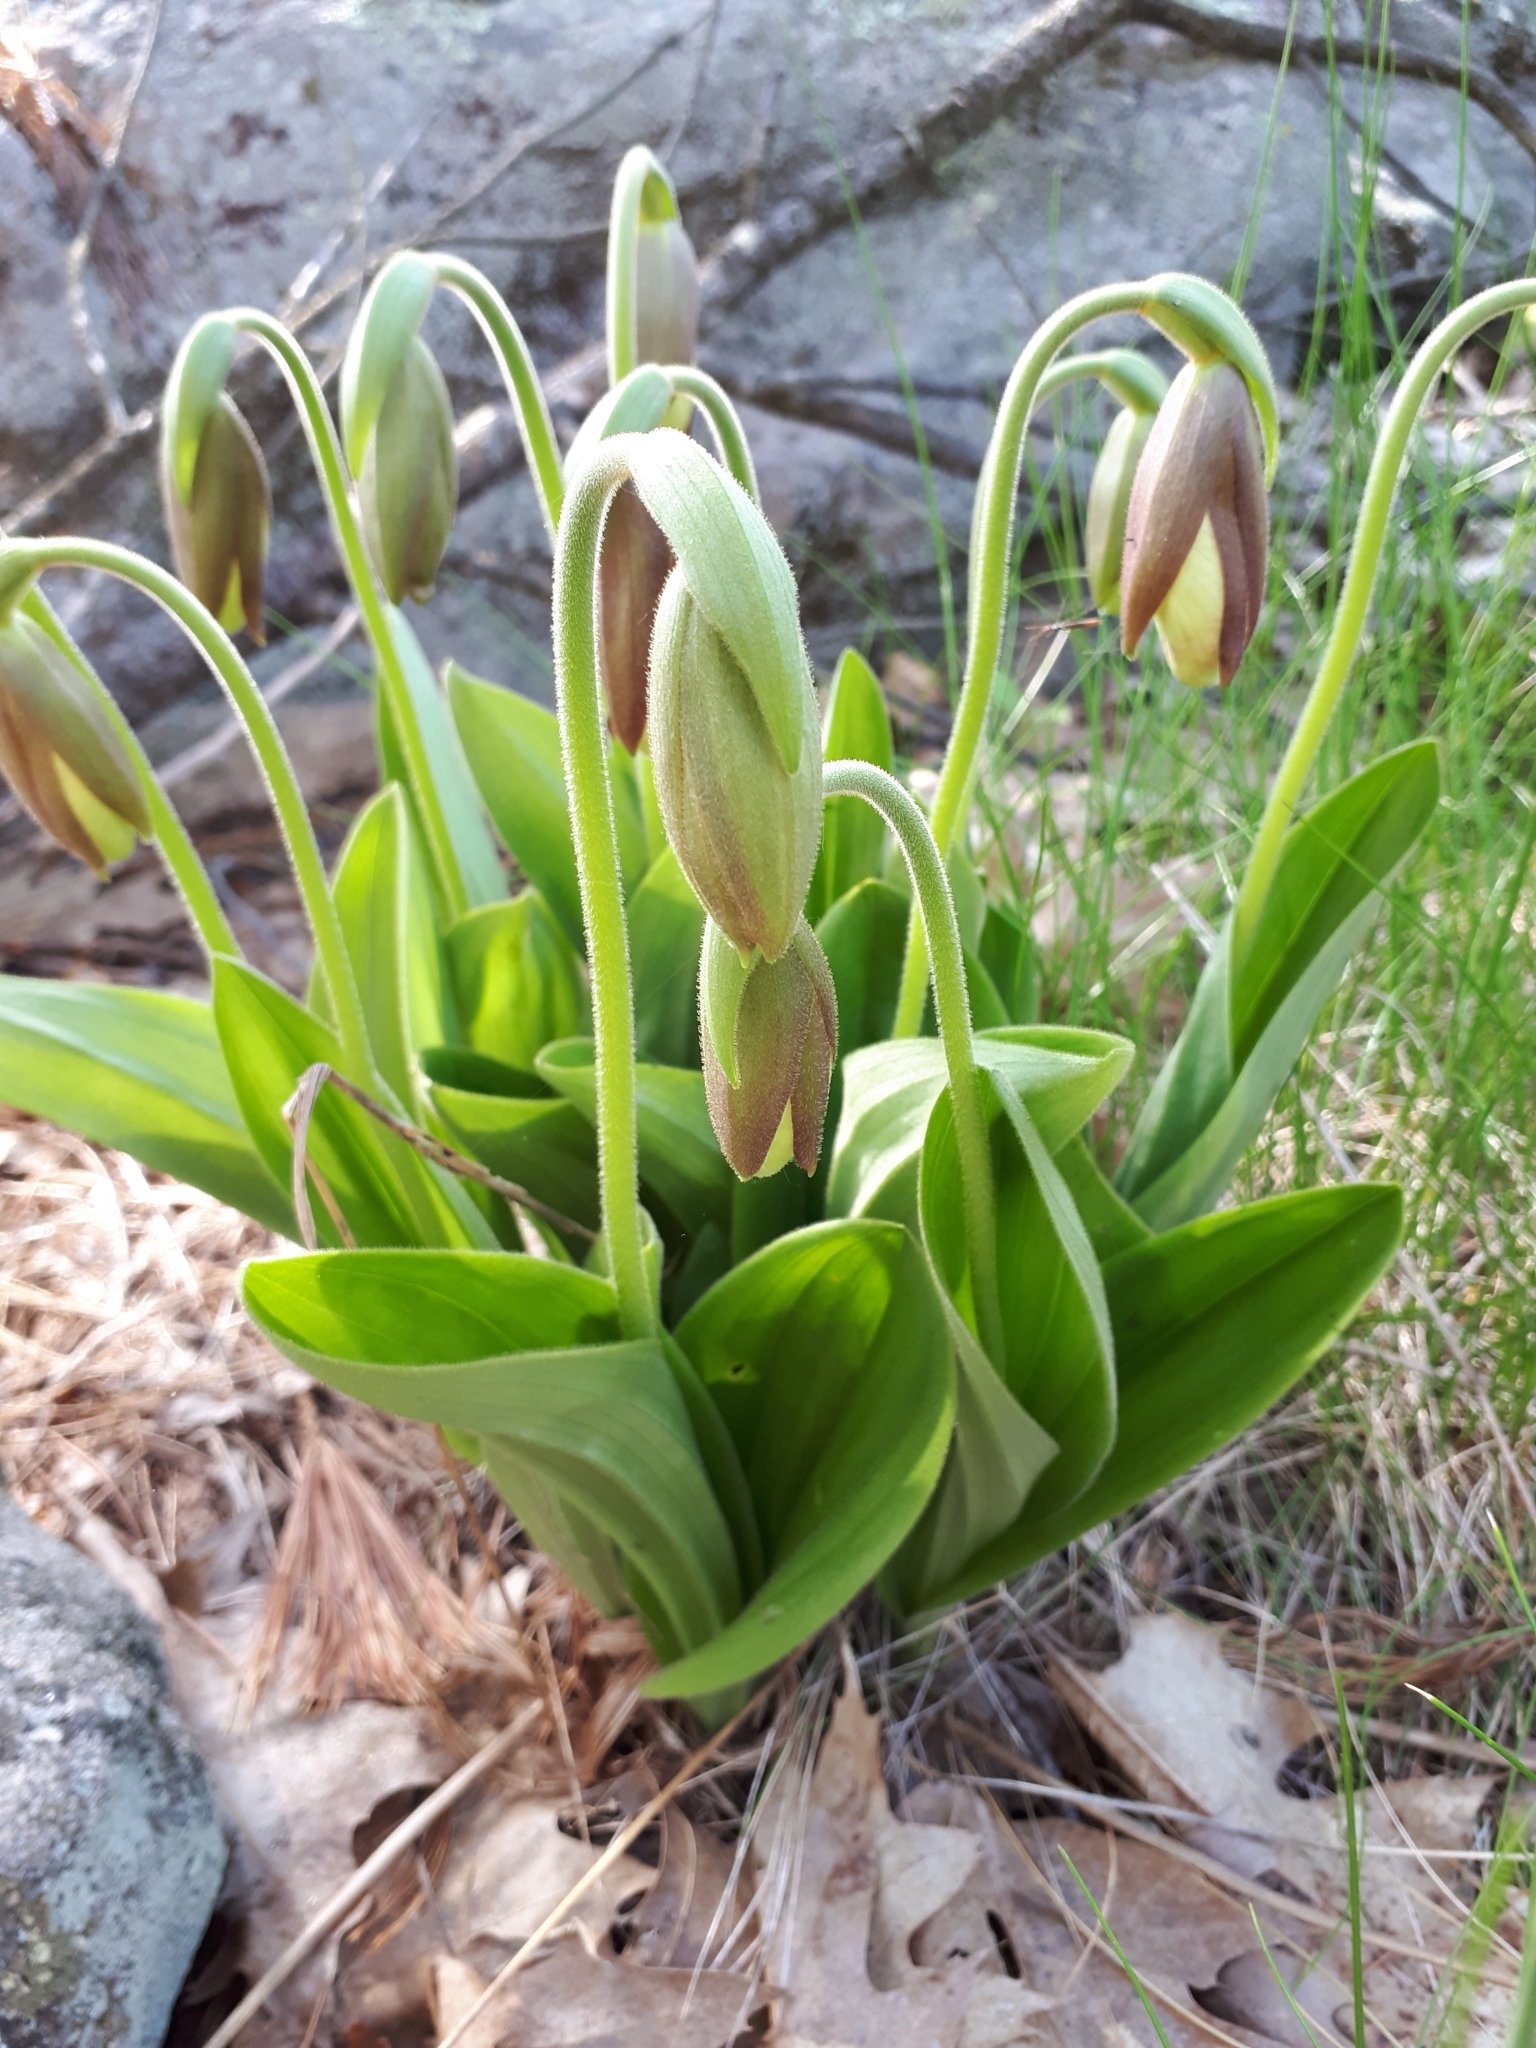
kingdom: Plantae
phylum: Tracheophyta
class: Liliopsida
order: Asparagales
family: Orchidaceae
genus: Cypripedium
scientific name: Cypripedium acaule
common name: Pink lady's-slipper
